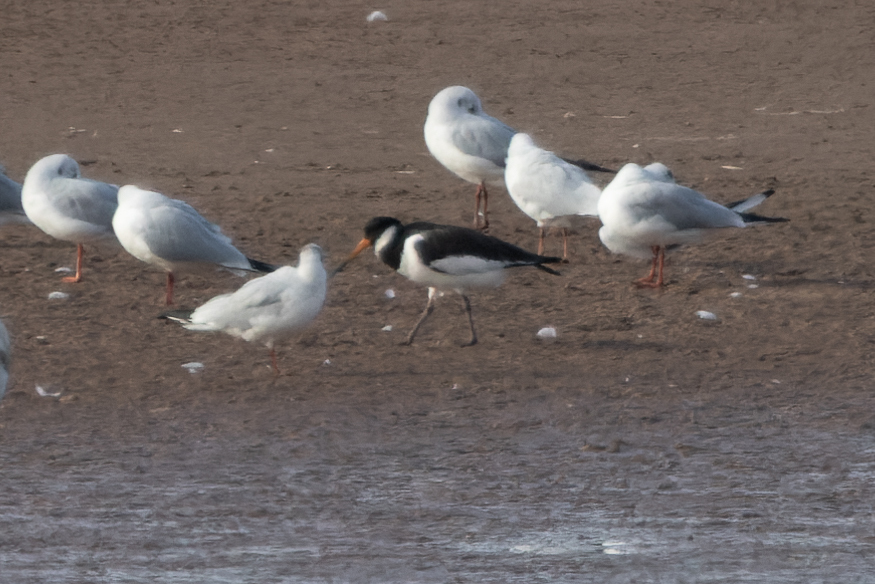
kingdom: Animalia
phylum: Chordata
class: Aves
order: Charadriiformes
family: Haematopodidae
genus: Haematopus
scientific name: Haematopus ostralegus
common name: Eurasian oystercatcher
